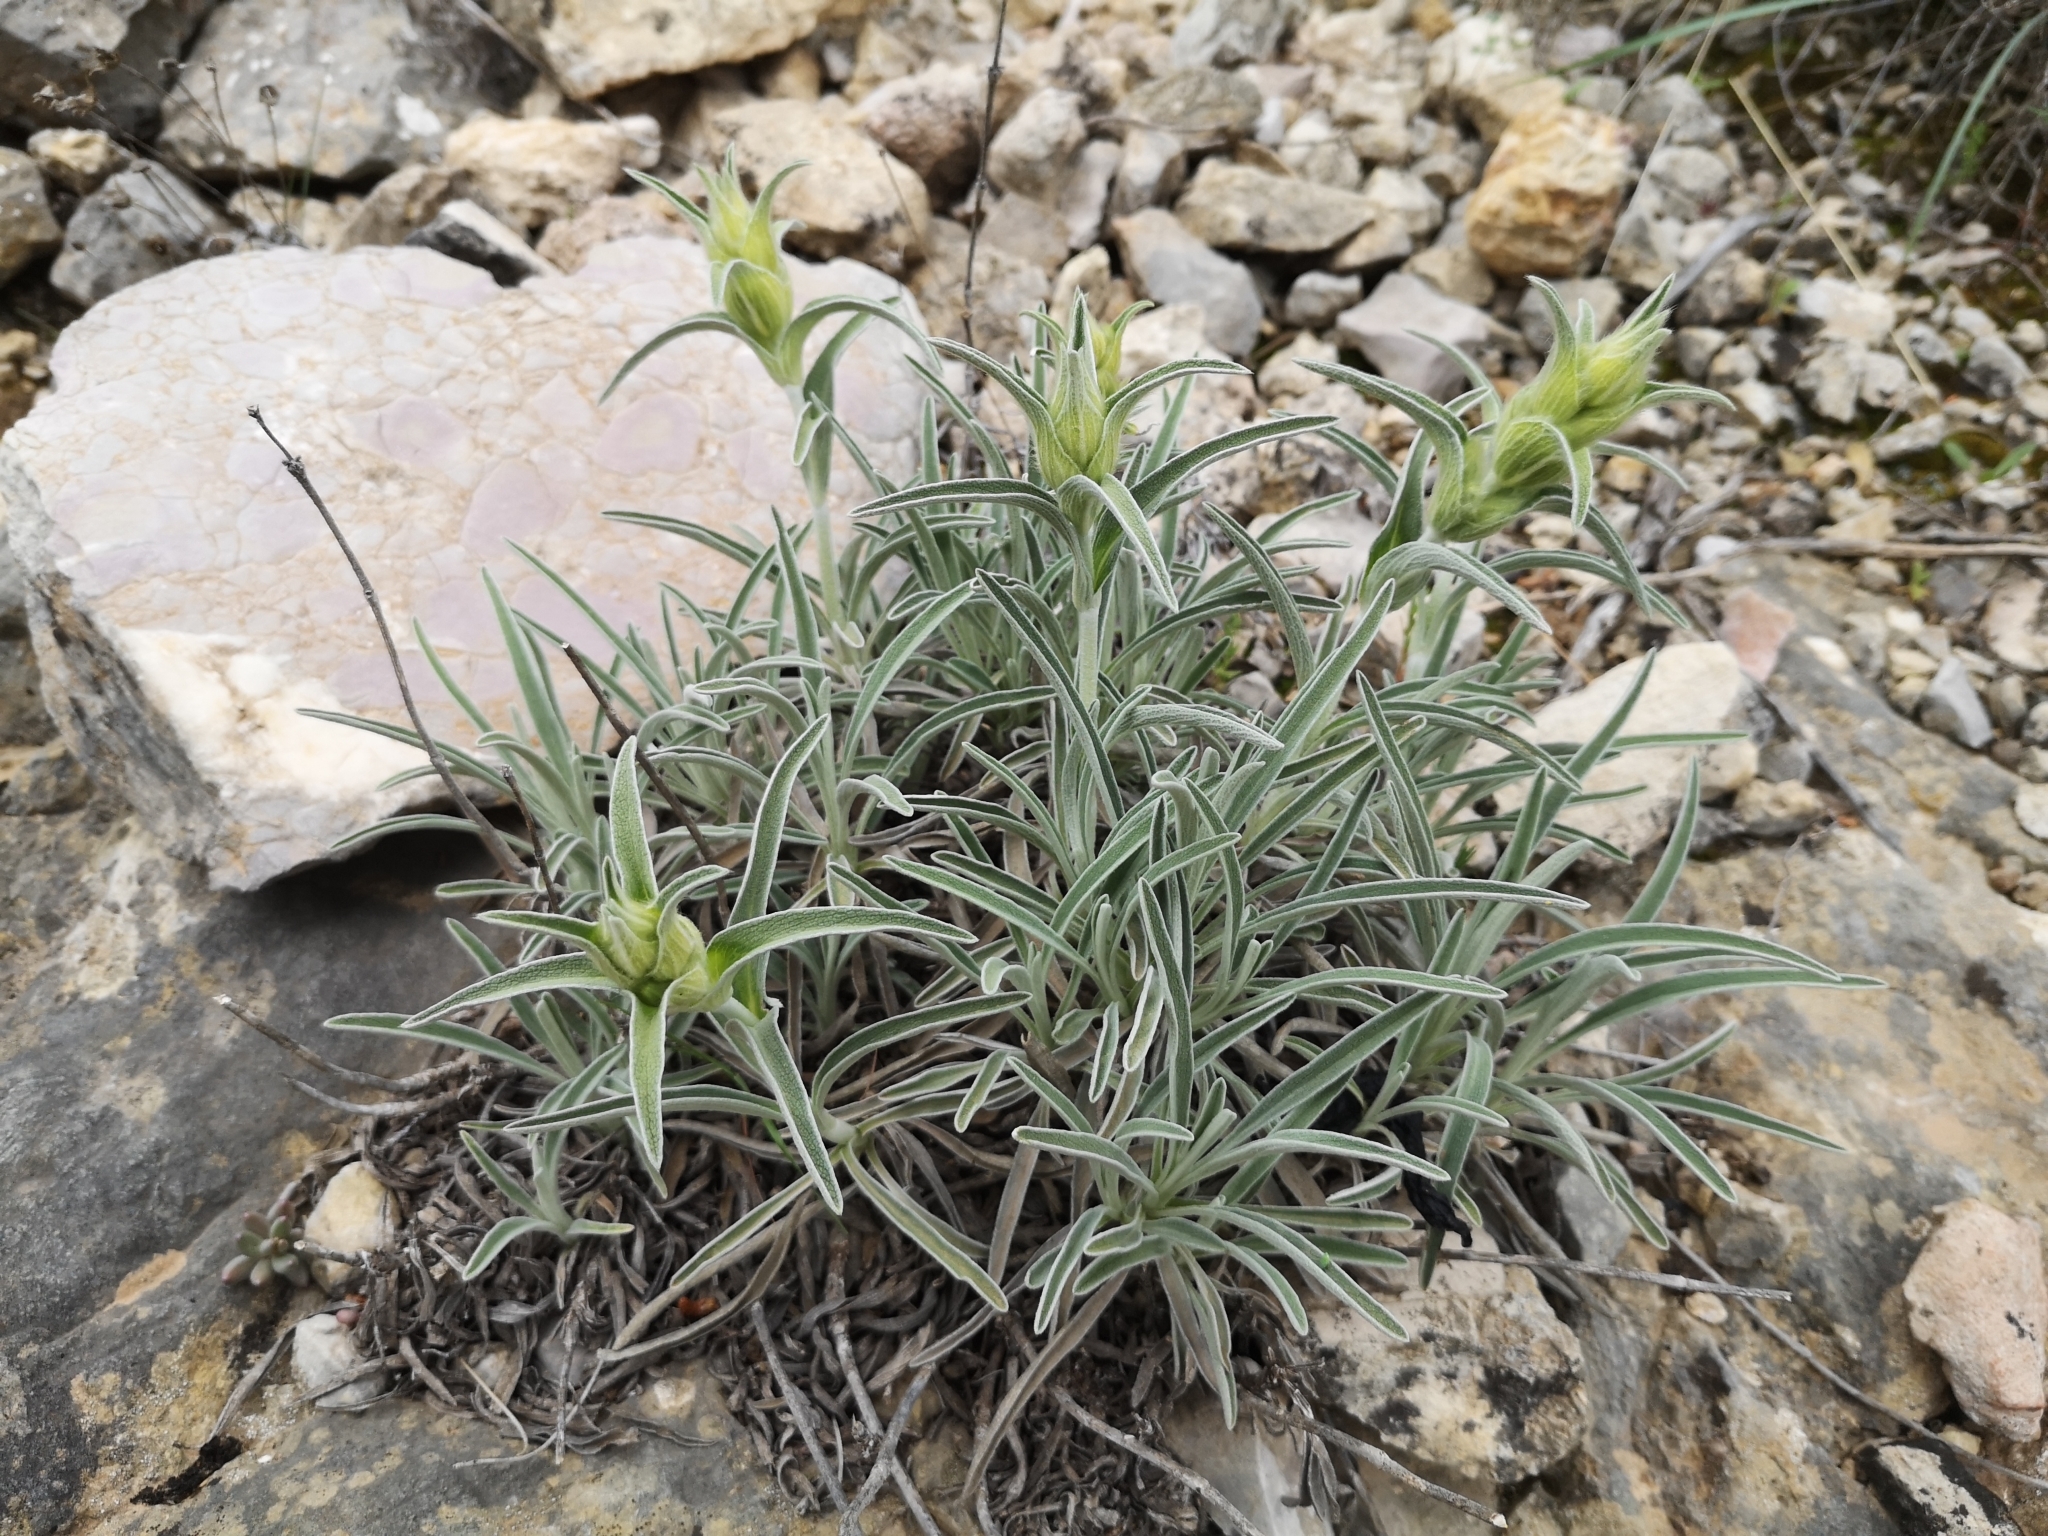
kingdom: Plantae
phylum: Tracheophyta
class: Magnoliopsida
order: Lamiales
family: Lamiaceae
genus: Phlomis
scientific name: Phlomis lychnitis
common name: Lampwickplant
